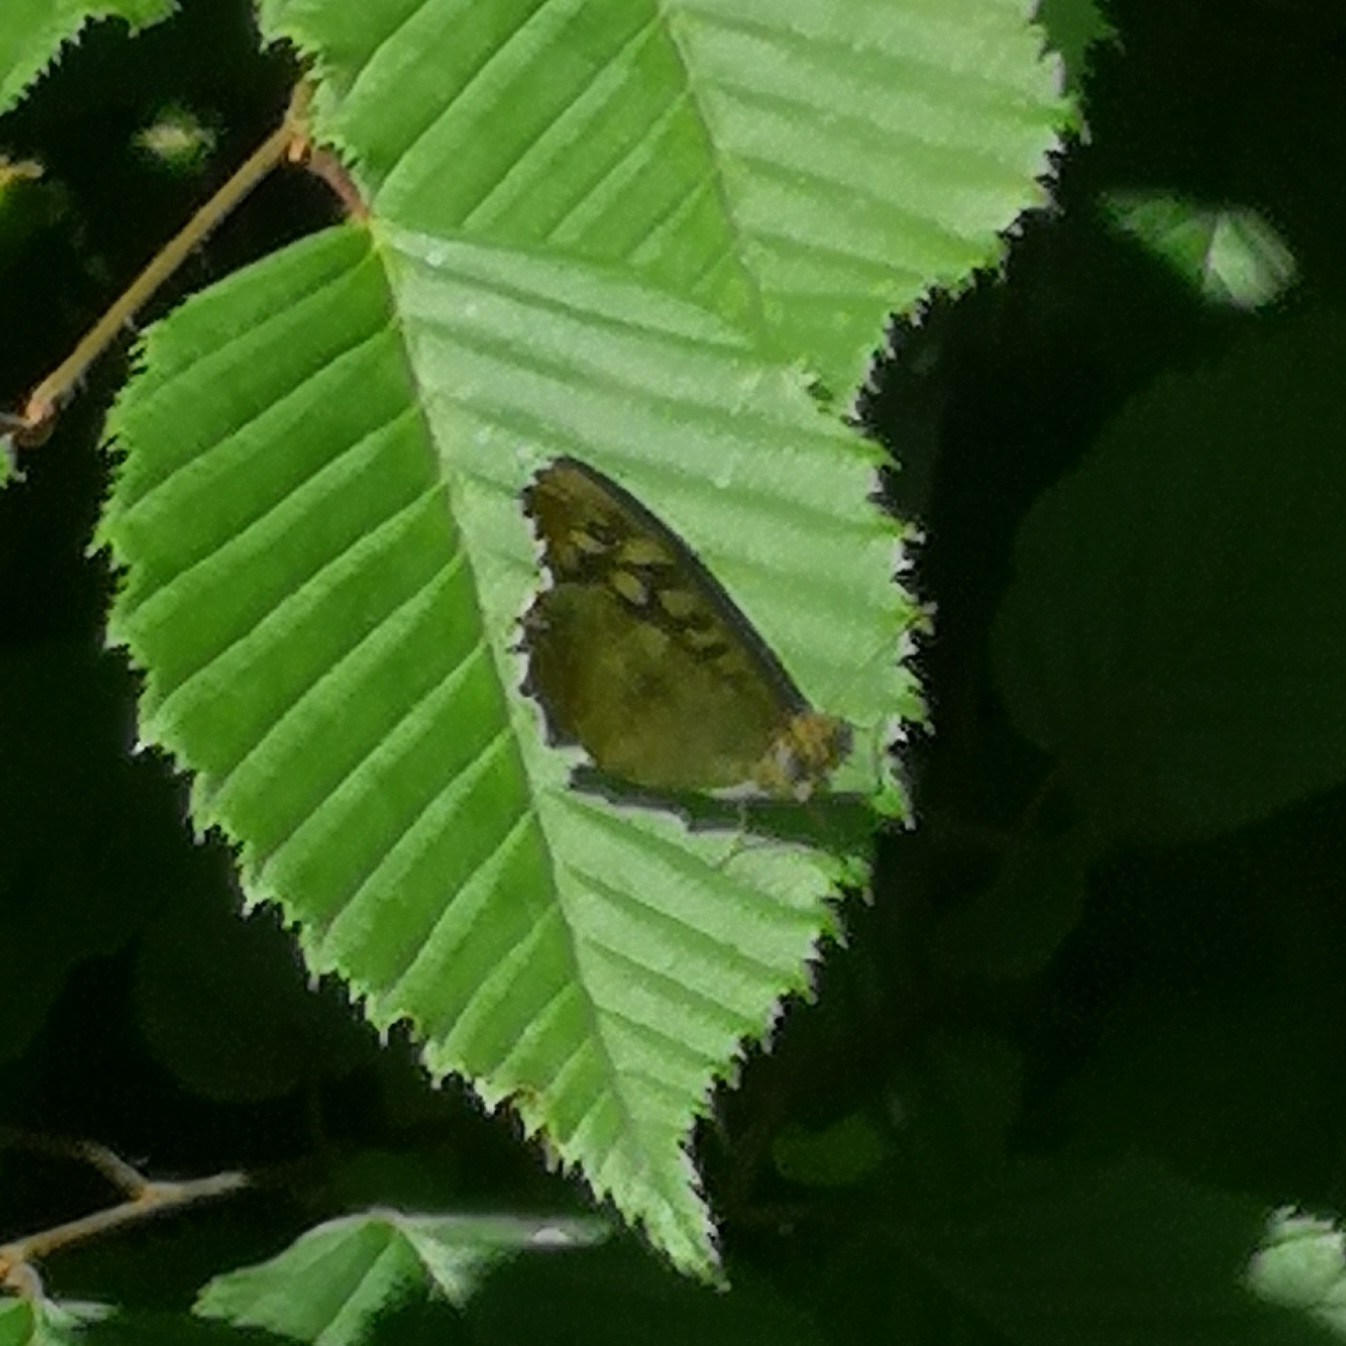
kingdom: Animalia
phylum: Arthropoda
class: Insecta
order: Lepidoptera
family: Nymphalidae
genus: Pararge
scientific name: Pararge aegeria
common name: Speckled wood
